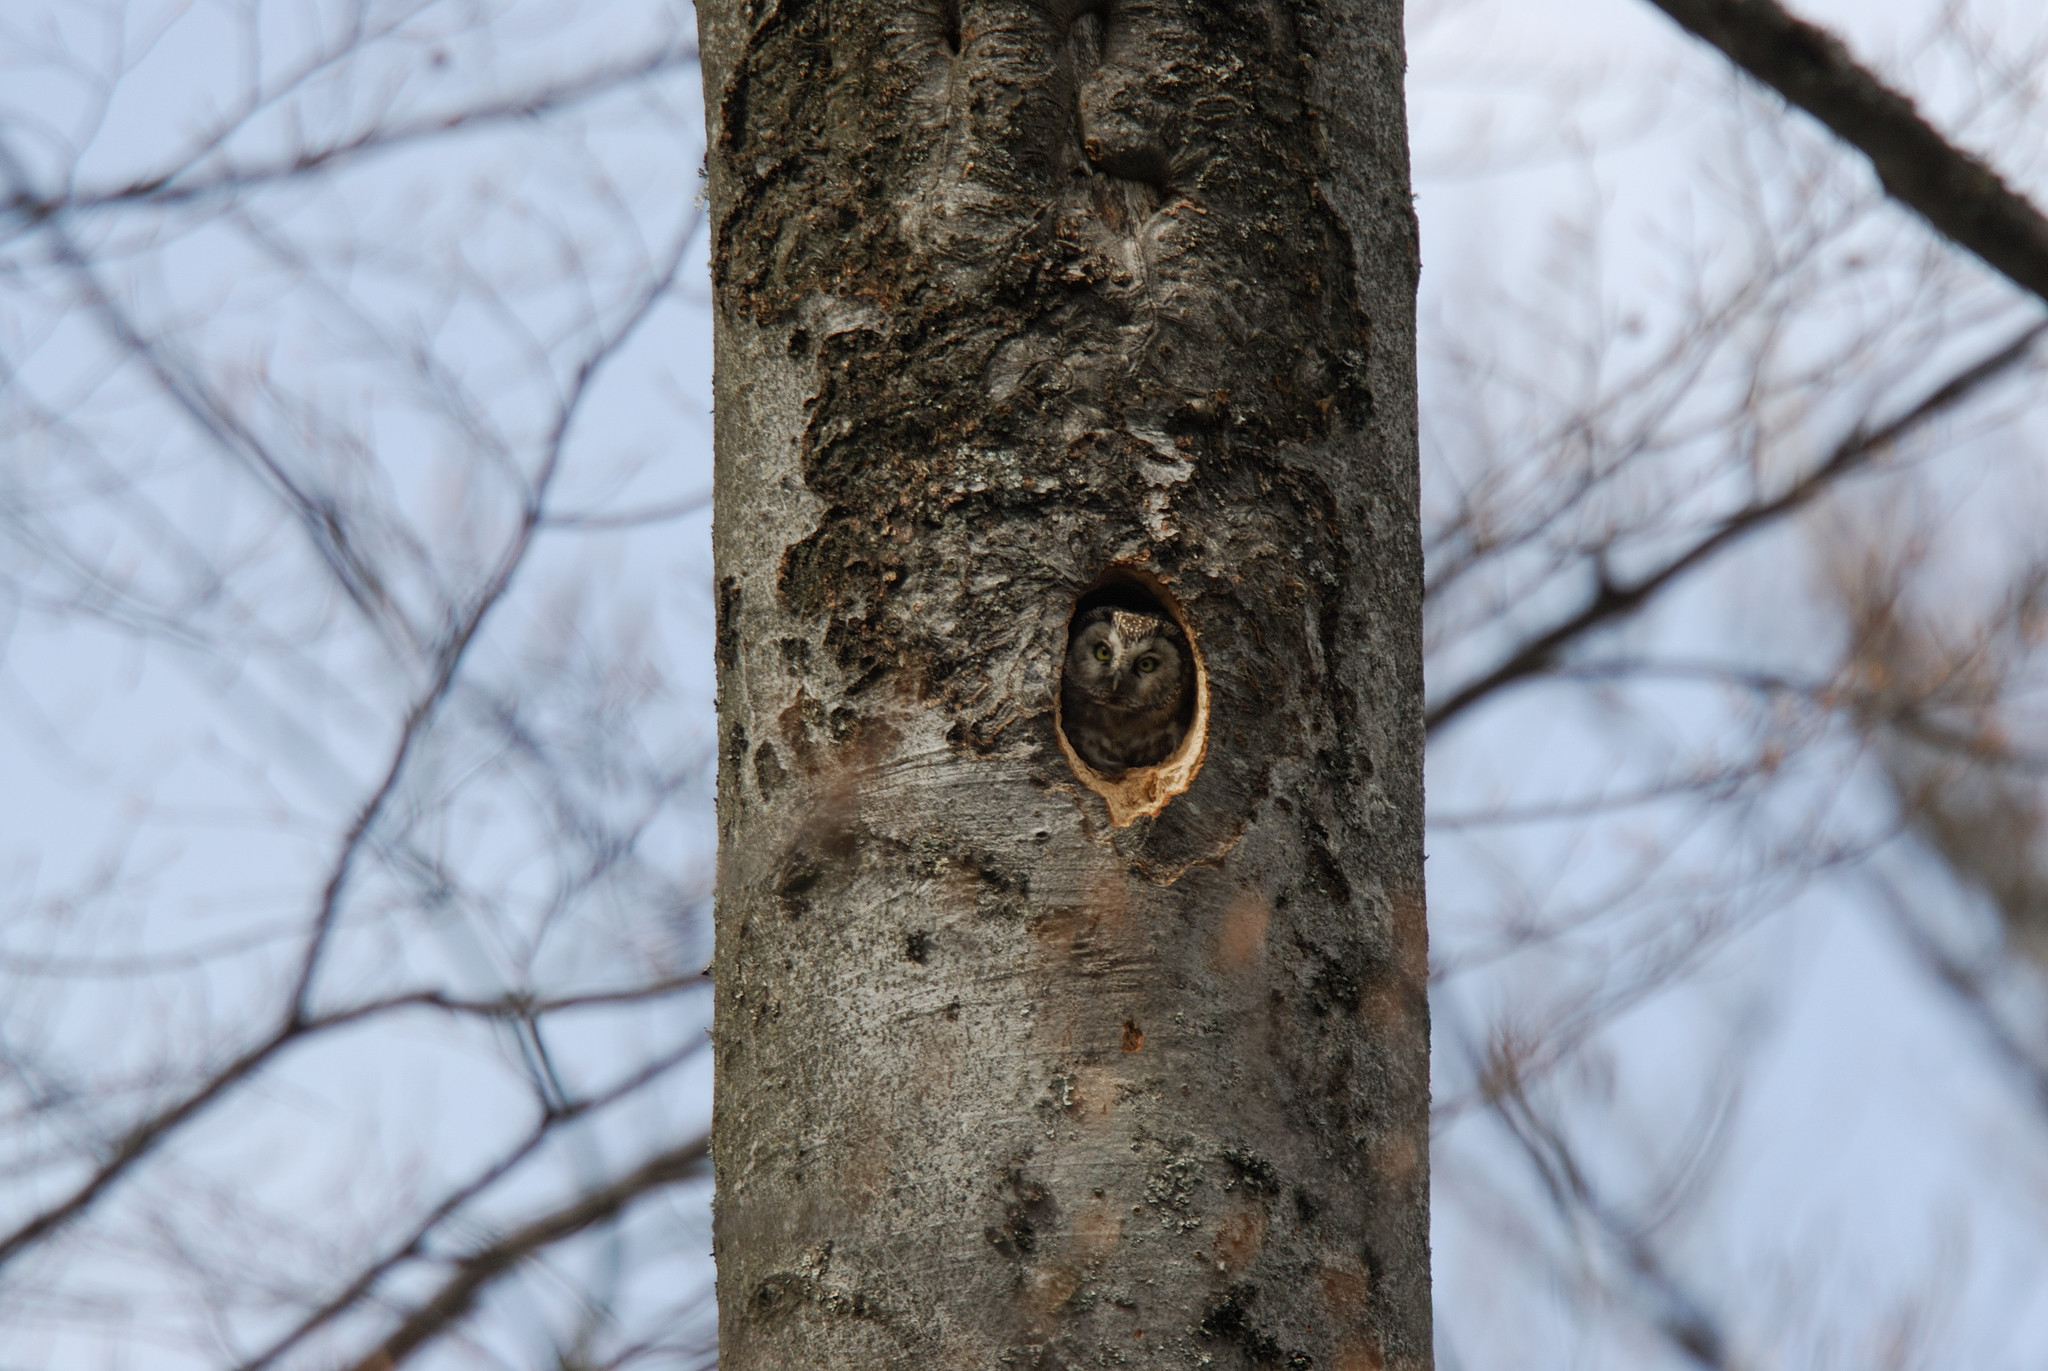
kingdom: Animalia
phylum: Chordata
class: Aves
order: Strigiformes
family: Strigidae
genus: Aegolius
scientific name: Aegolius funereus
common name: Boreal owl
